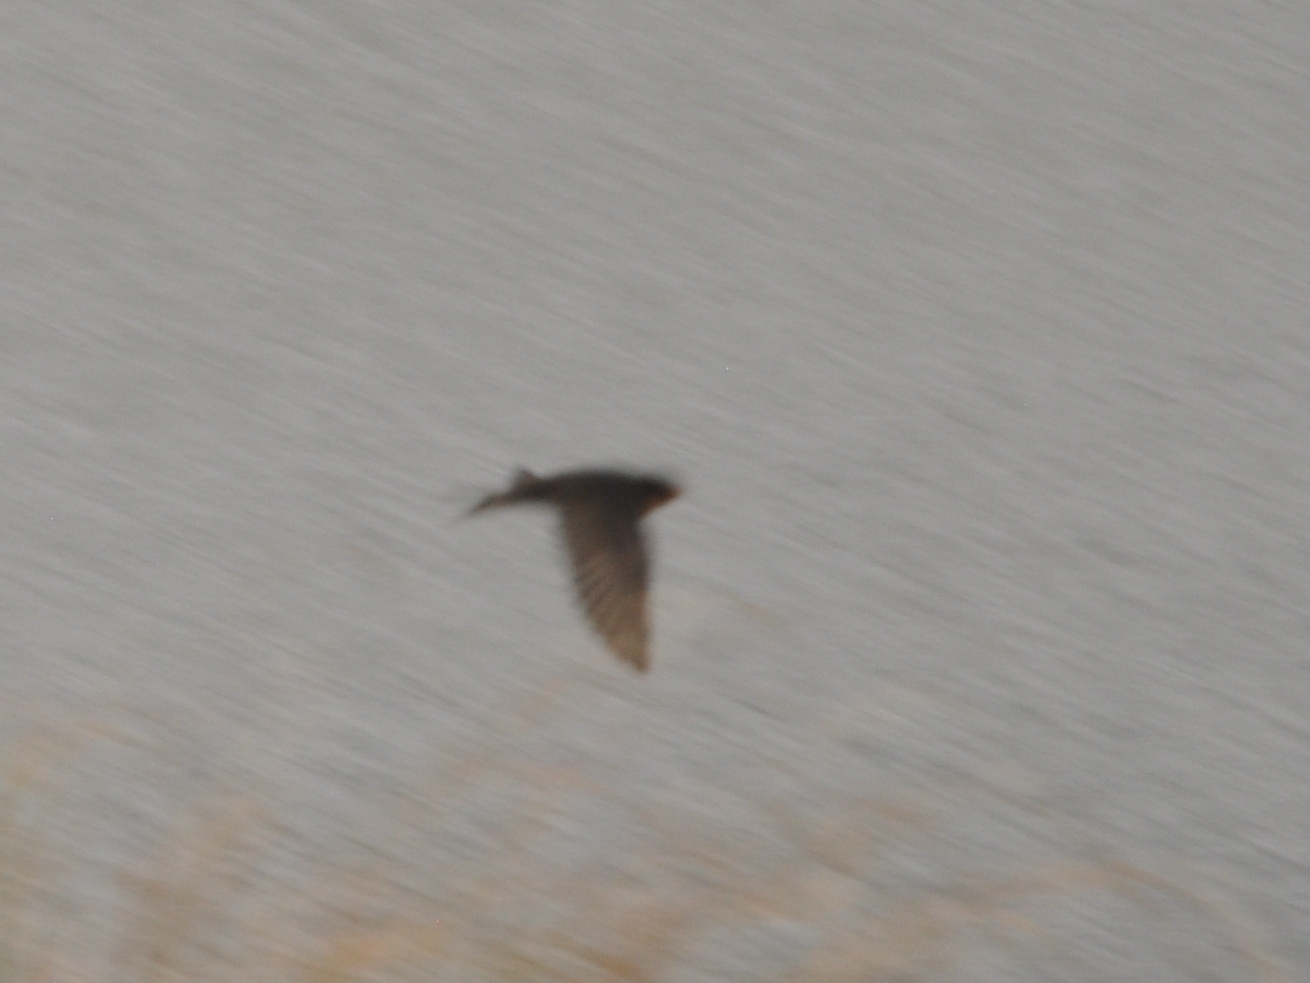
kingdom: Animalia
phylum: Chordata
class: Aves
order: Passeriformes
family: Hirundinidae
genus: Hirundo
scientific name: Hirundo neoxena
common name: Welcome swallow
